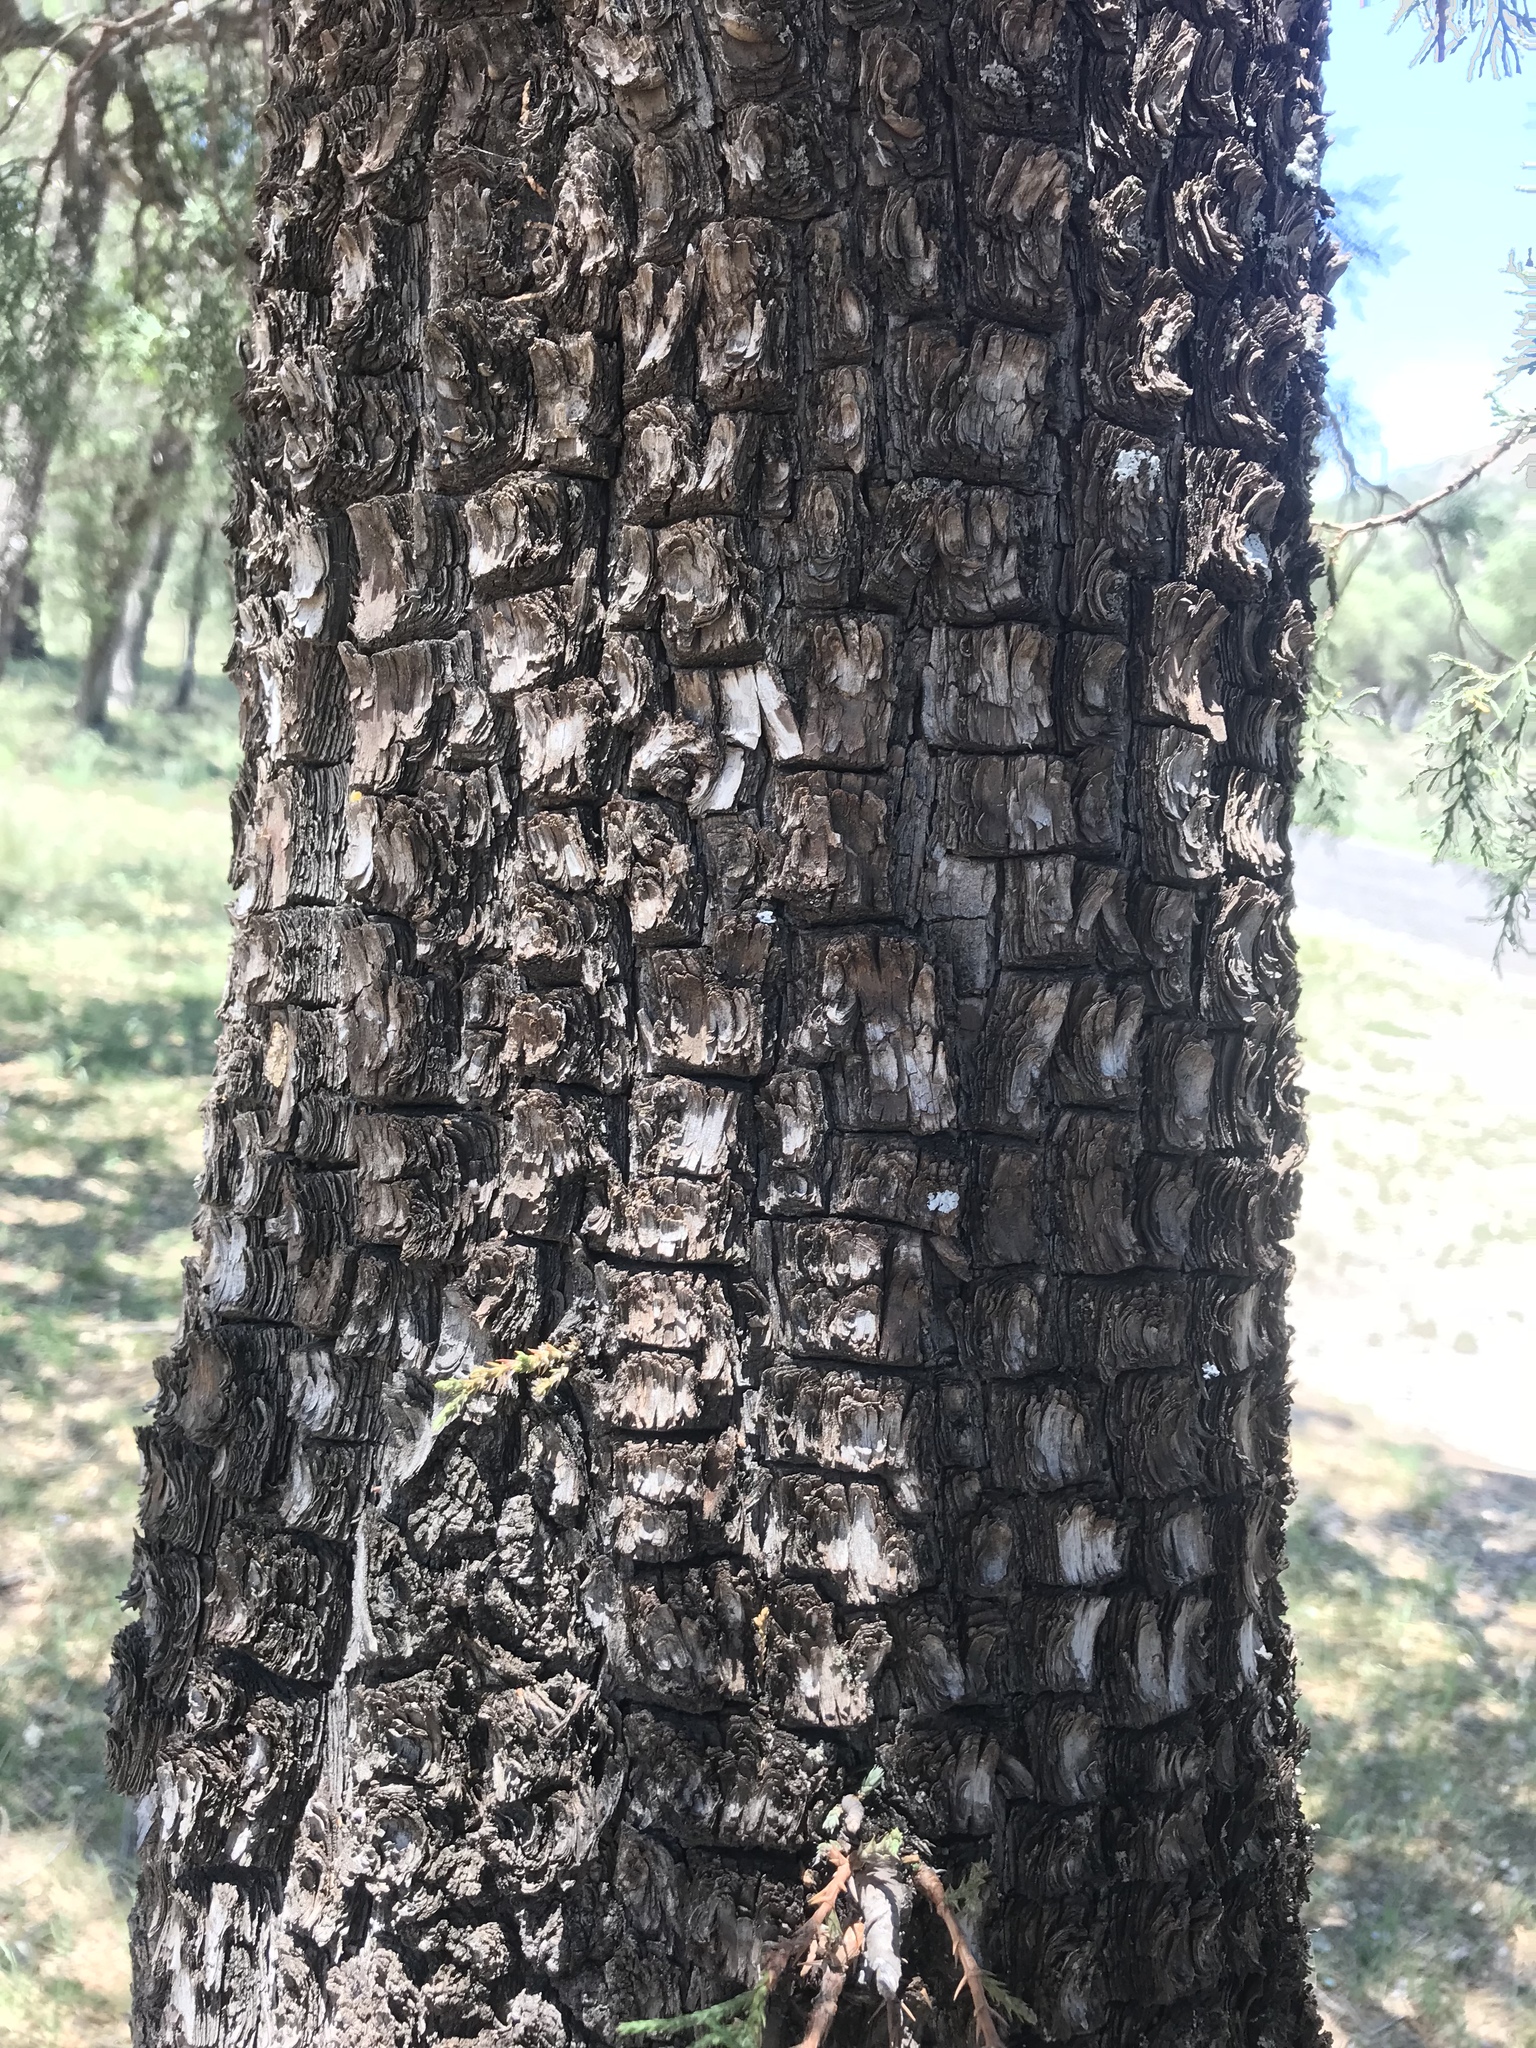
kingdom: Plantae
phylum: Tracheophyta
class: Pinopsida
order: Pinales
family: Cupressaceae
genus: Juniperus
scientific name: Juniperus deppeana
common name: Alligator juniper
